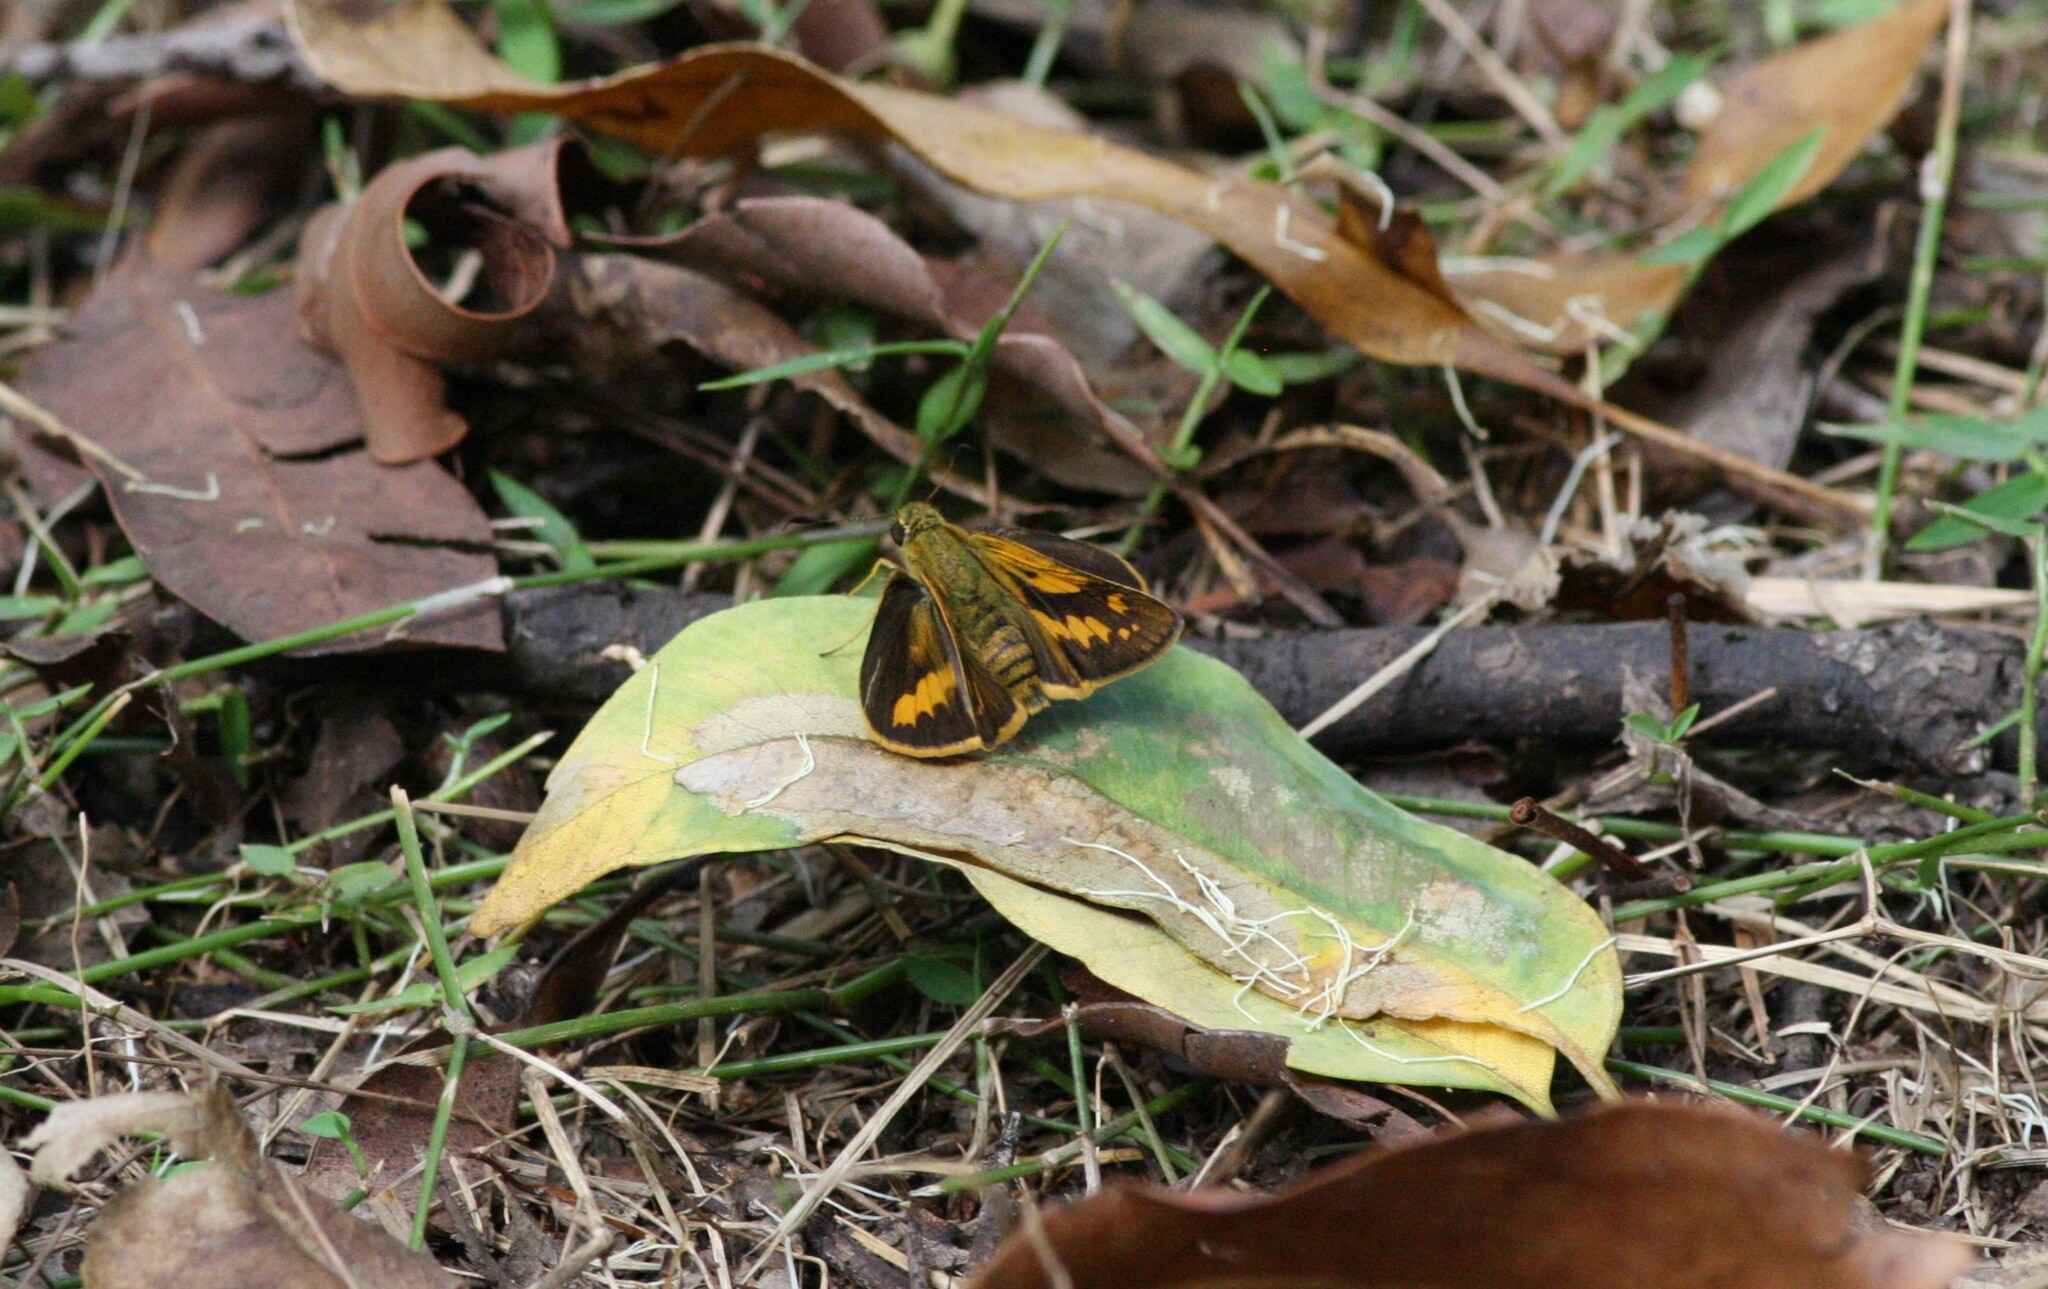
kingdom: Animalia
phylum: Arthropoda
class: Insecta
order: Lepidoptera
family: Hesperiidae
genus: Telicota
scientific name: Telicota ancilla
